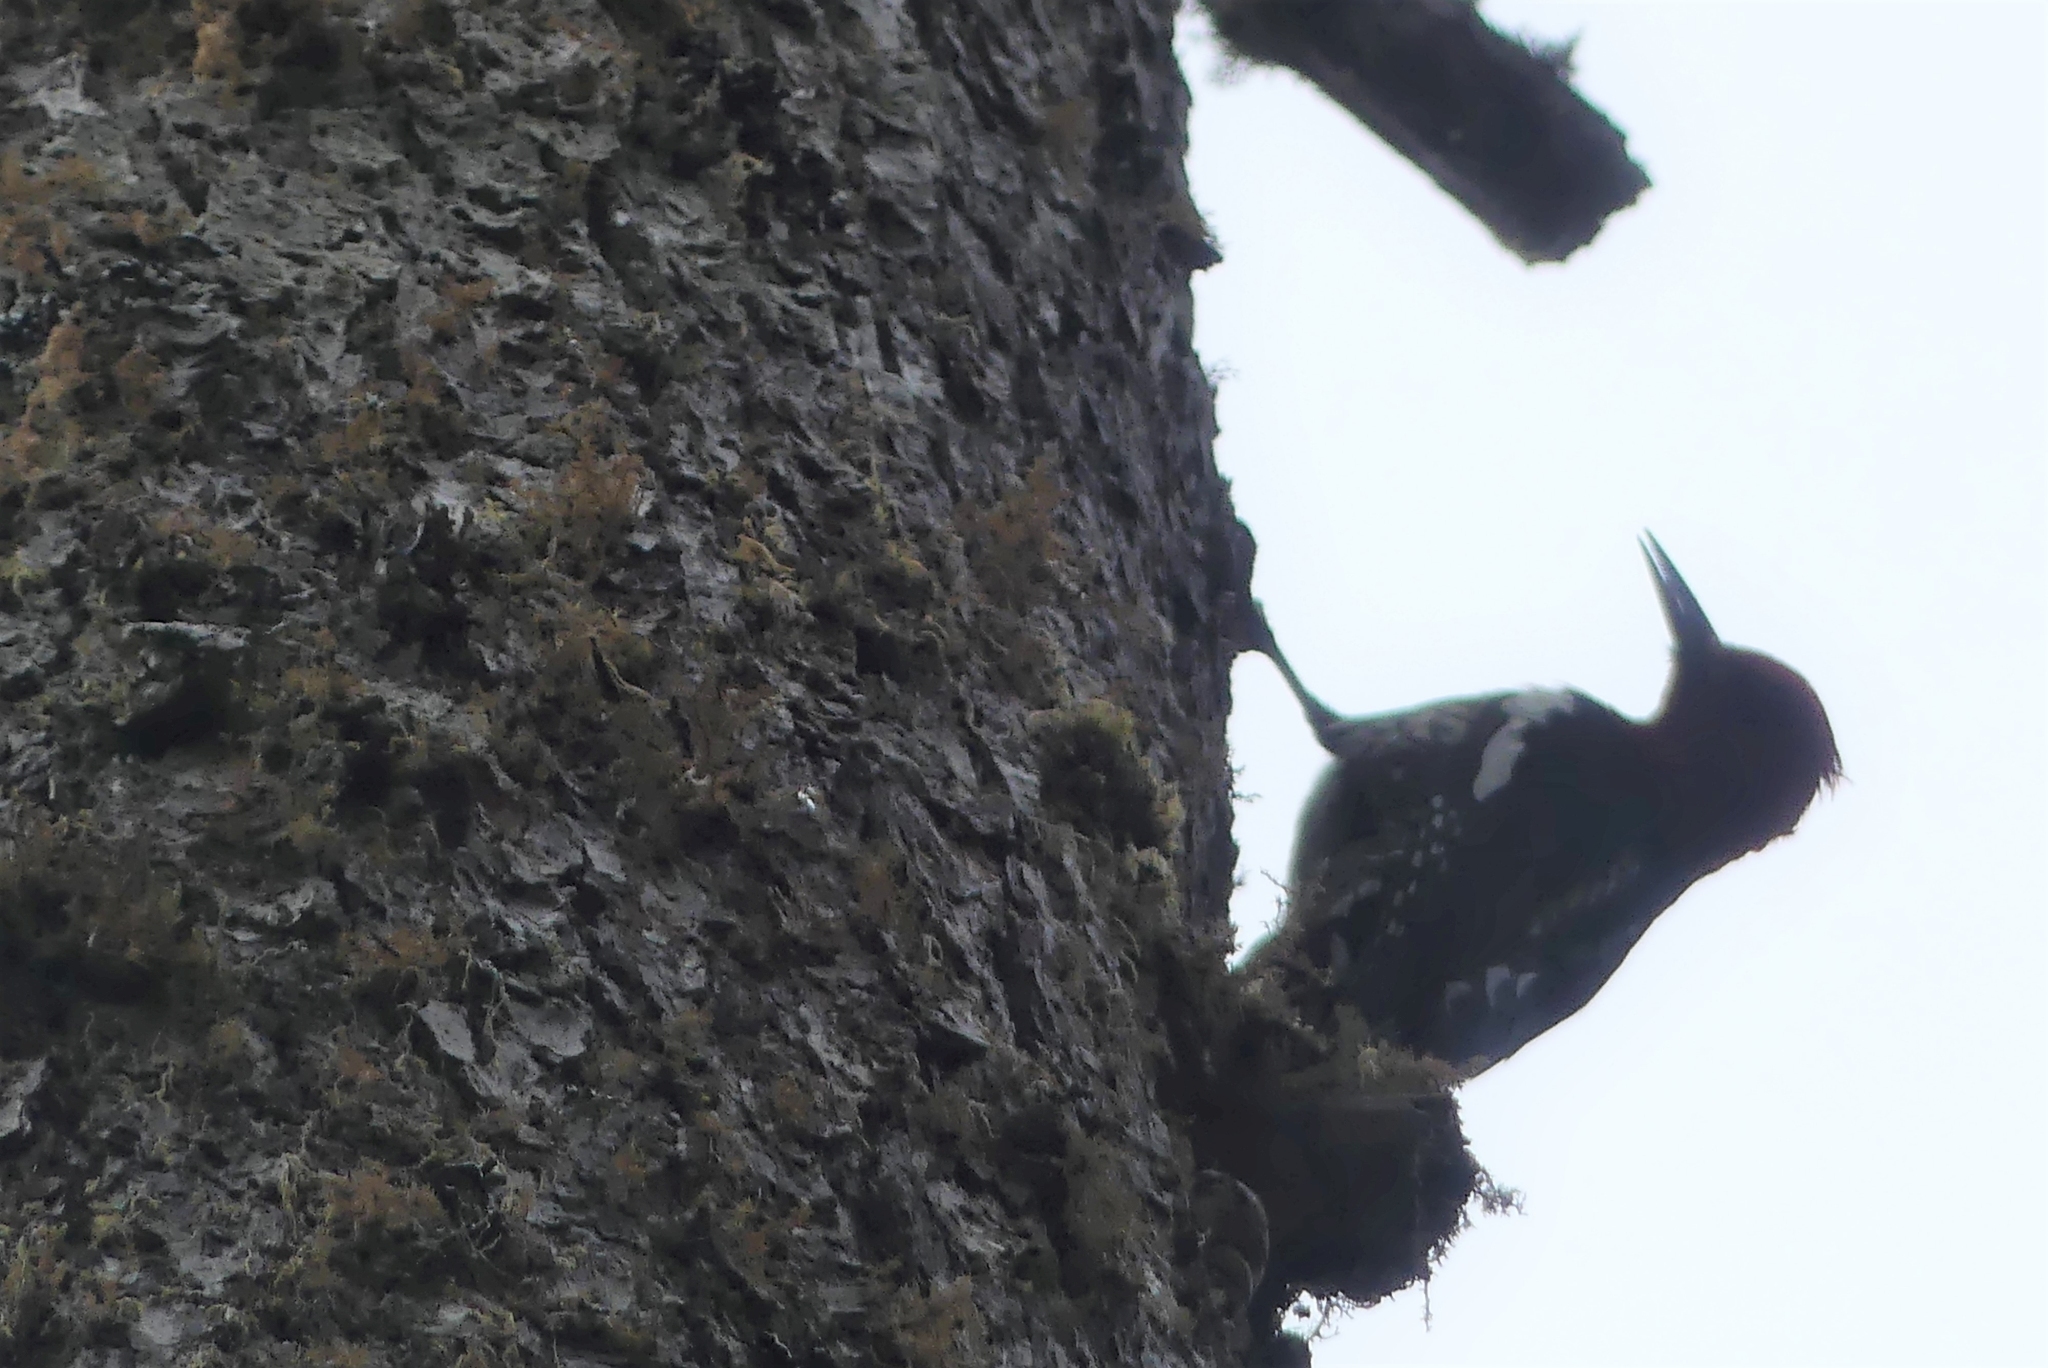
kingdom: Animalia
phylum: Chordata
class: Aves
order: Piciformes
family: Picidae
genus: Sphyrapicus
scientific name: Sphyrapicus ruber
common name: Red-breasted sapsucker
